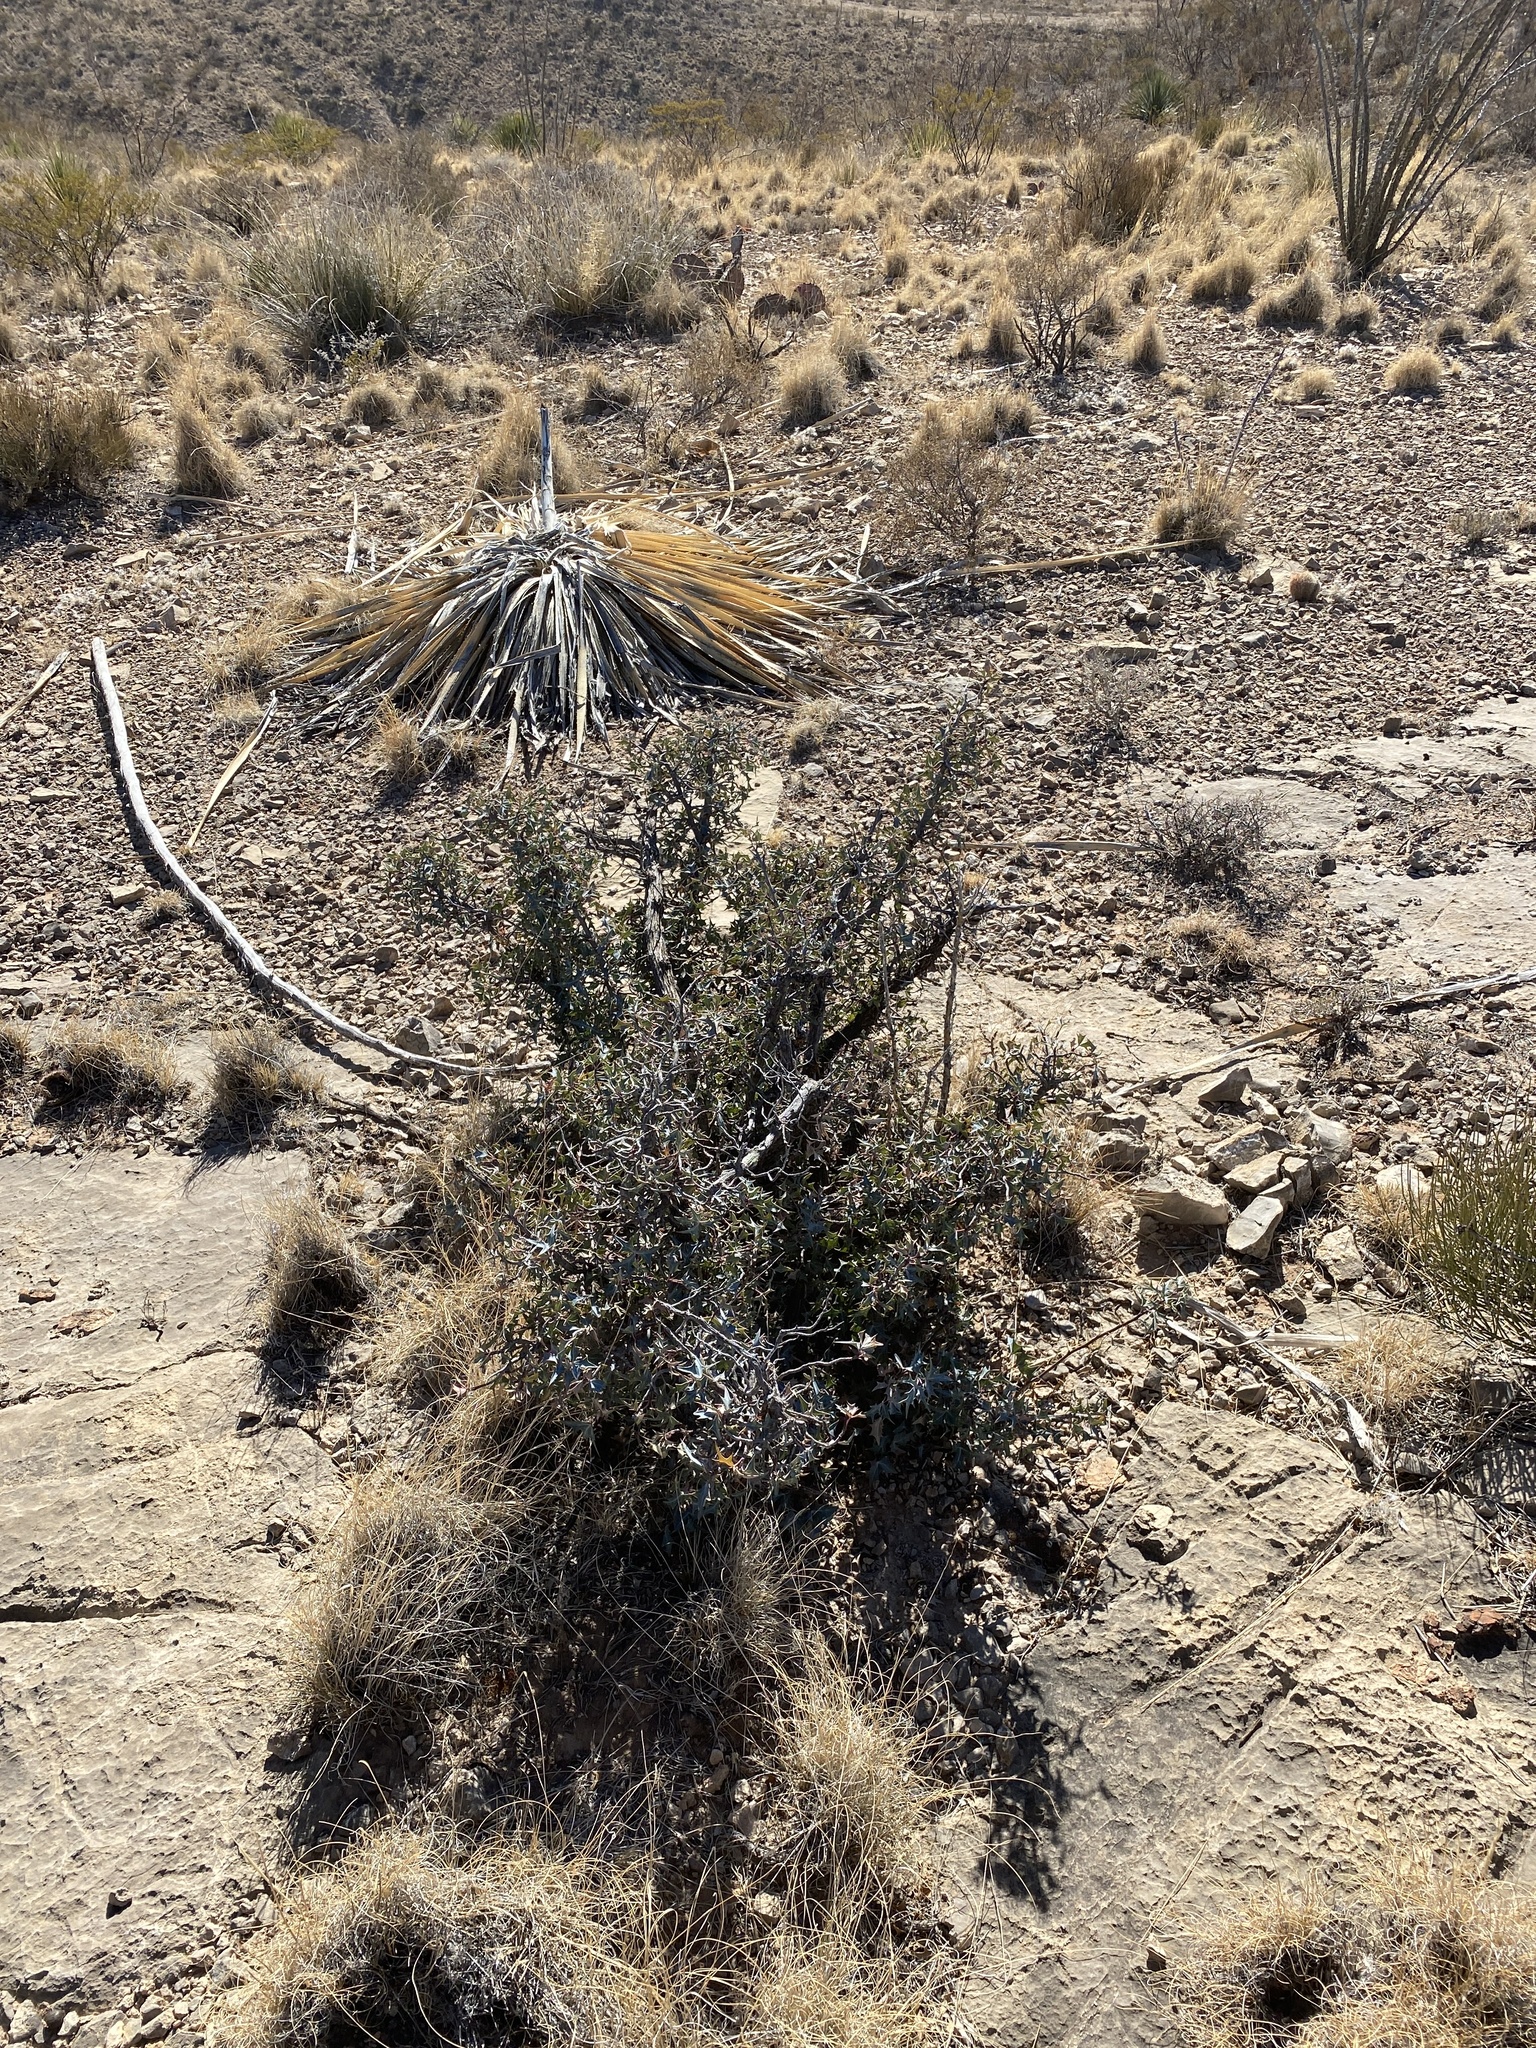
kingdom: Plantae
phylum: Tracheophyta
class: Magnoliopsida
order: Ranunculales
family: Berberidaceae
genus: Alloberberis
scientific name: Alloberberis trifoliolata
